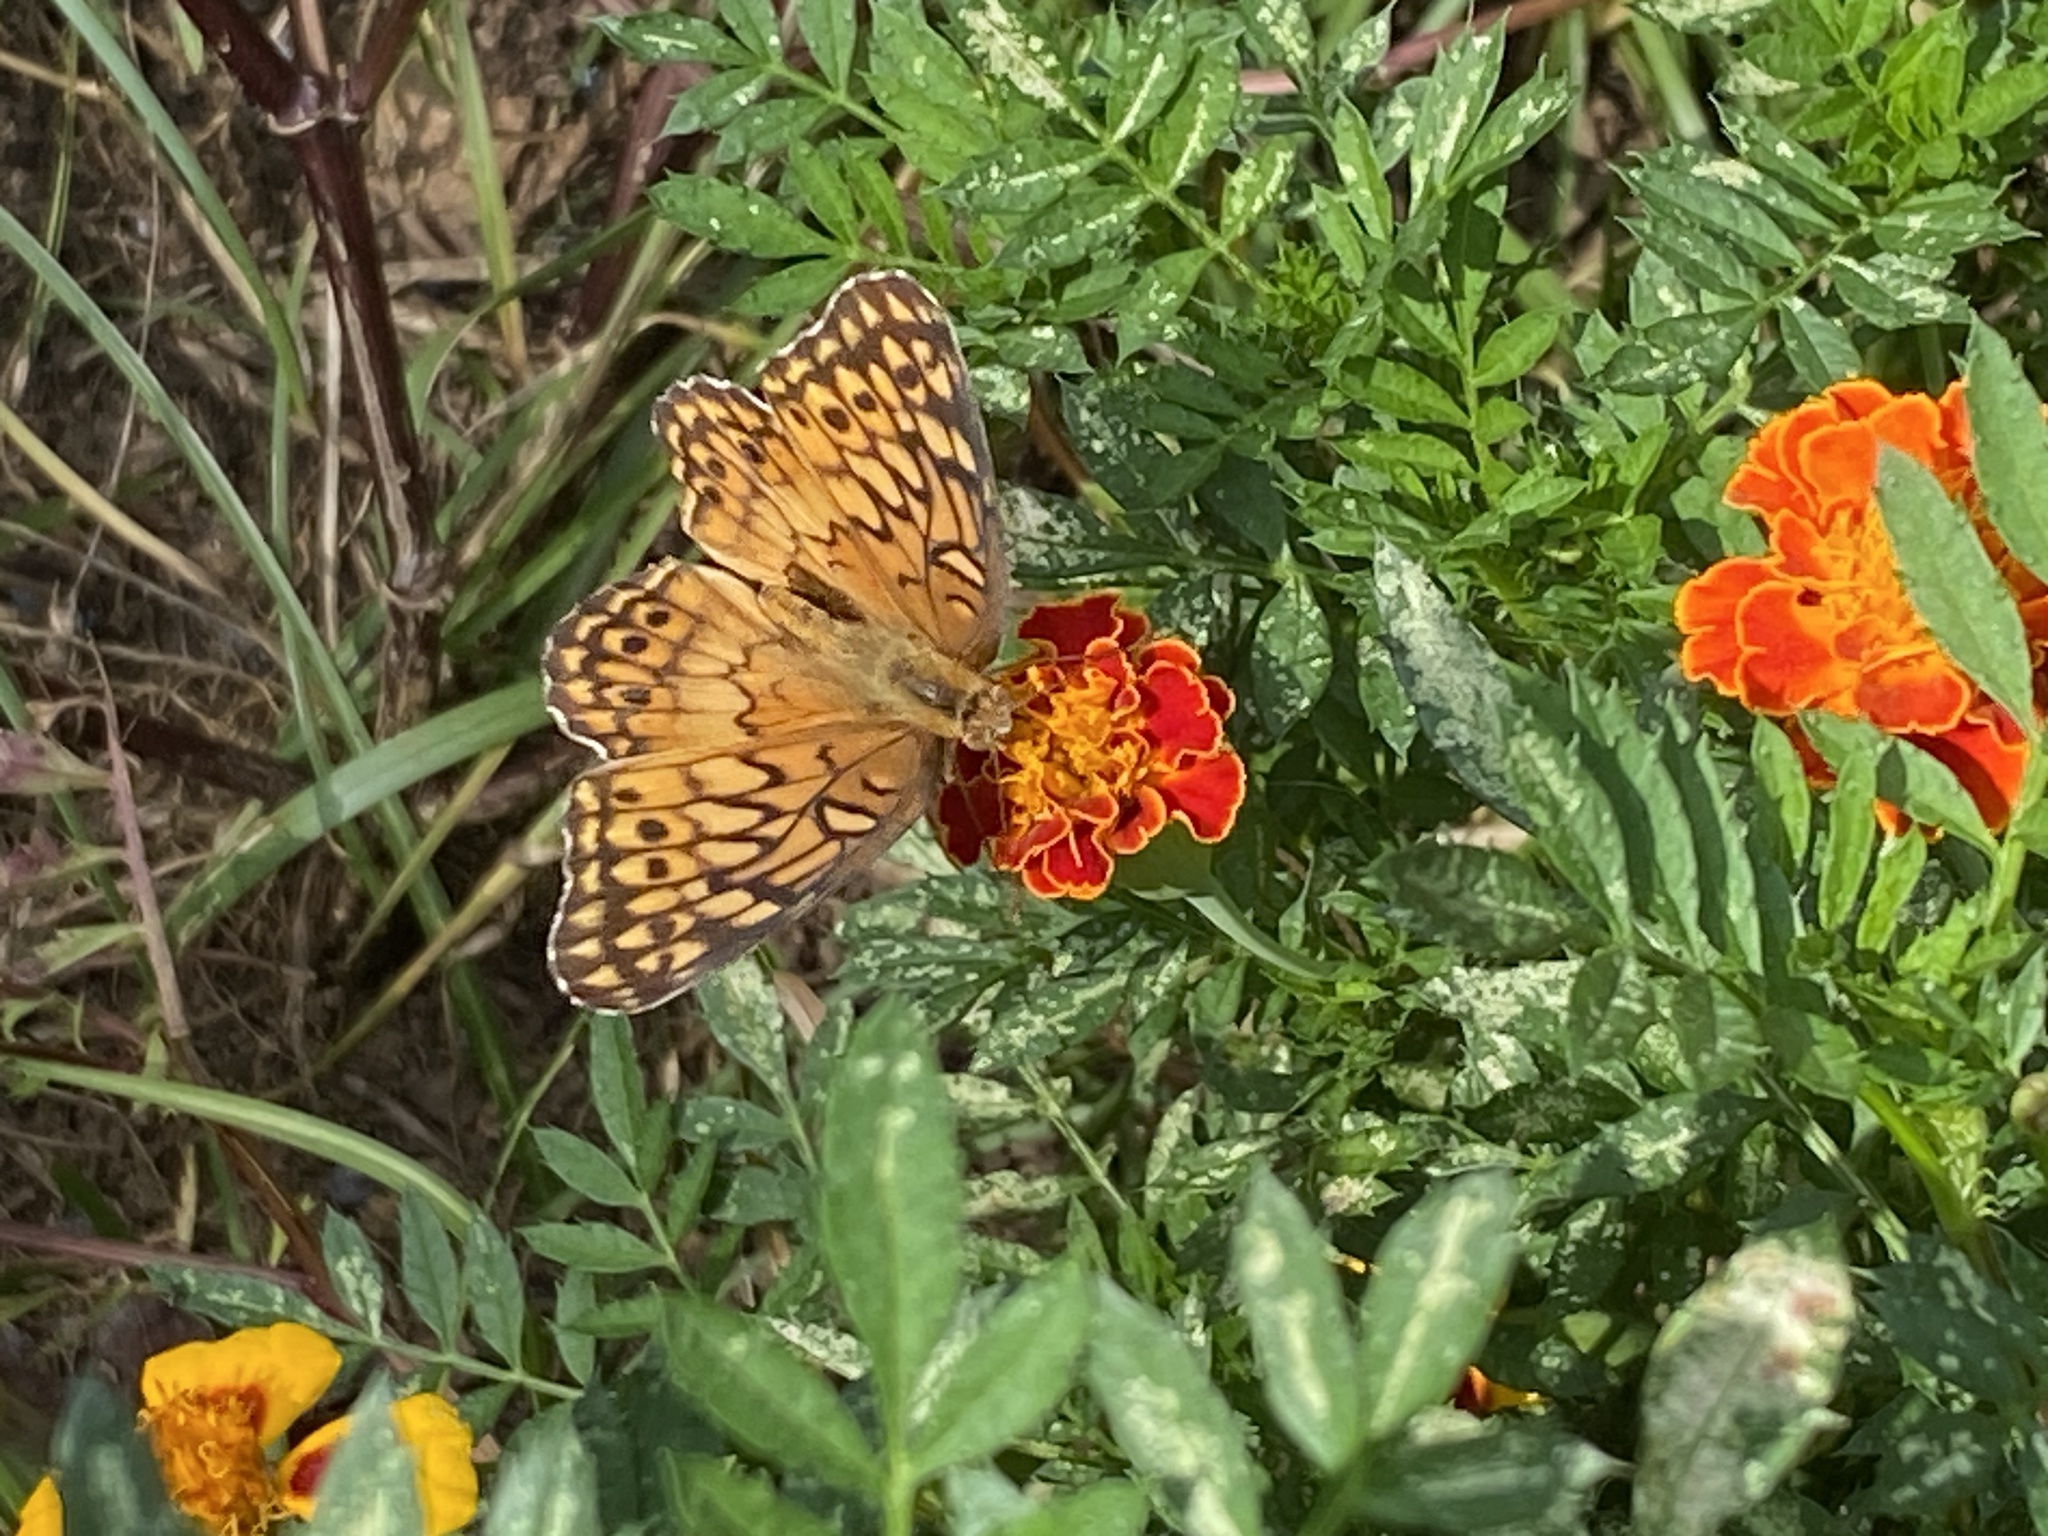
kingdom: Animalia
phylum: Arthropoda
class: Insecta
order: Lepidoptera
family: Nymphalidae
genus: Euptoieta
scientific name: Euptoieta claudia
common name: Variegated fritillary
